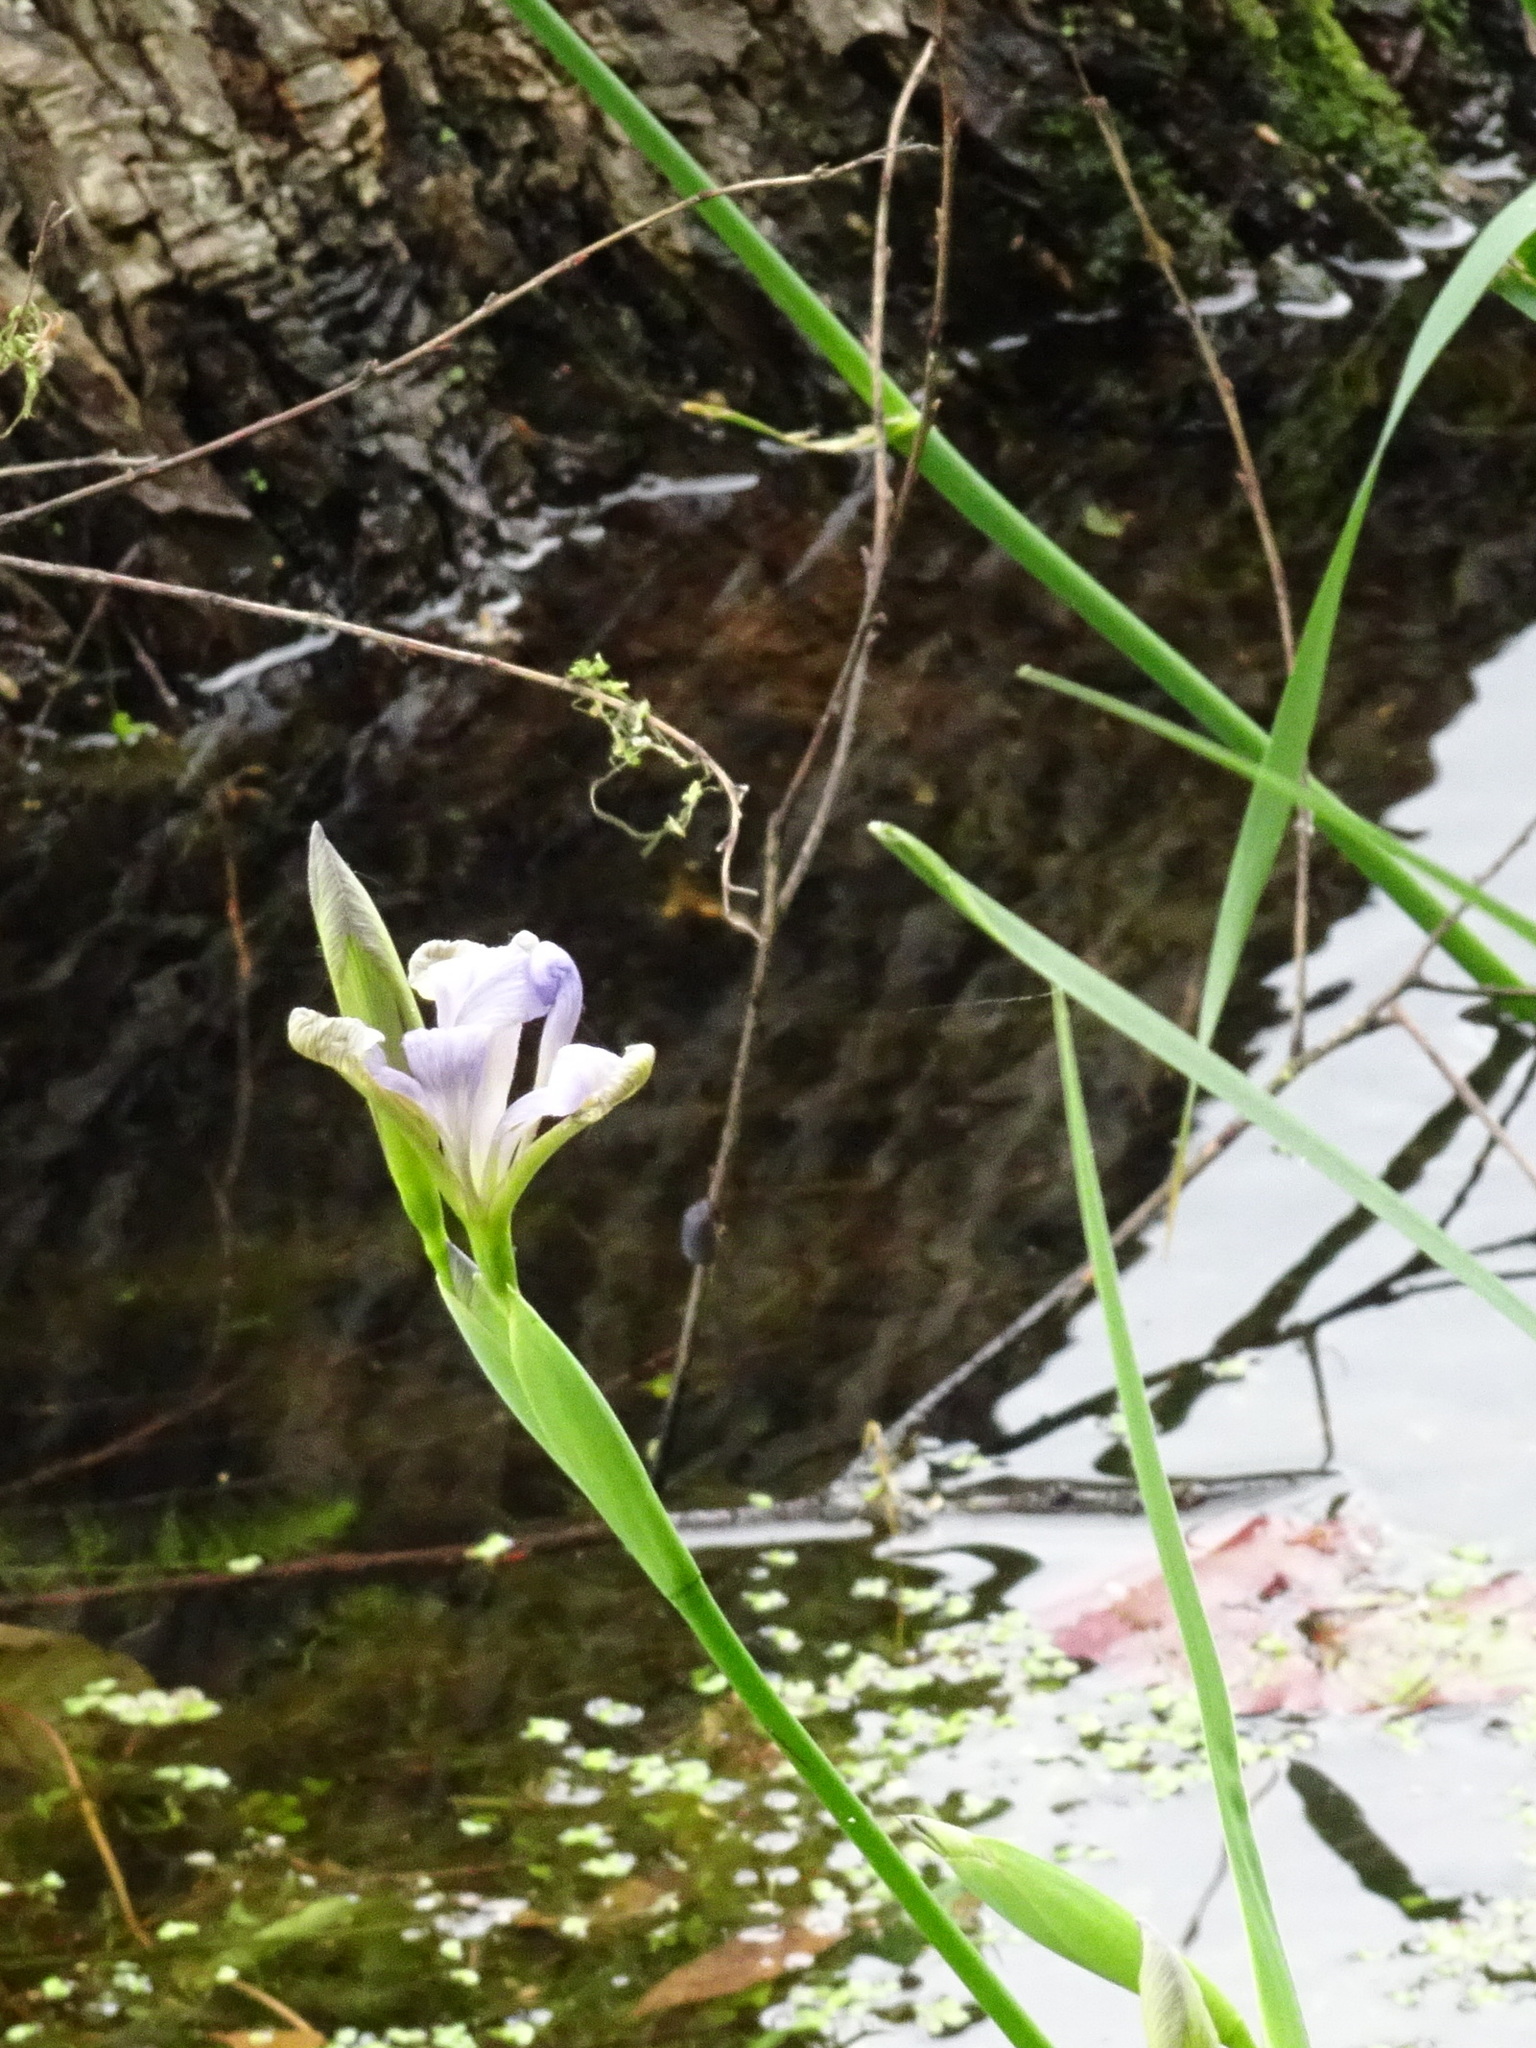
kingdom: Plantae
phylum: Tracheophyta
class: Liliopsida
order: Asparagales
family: Iridaceae
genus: Iris
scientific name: Iris virginica
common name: Southern blue flag
